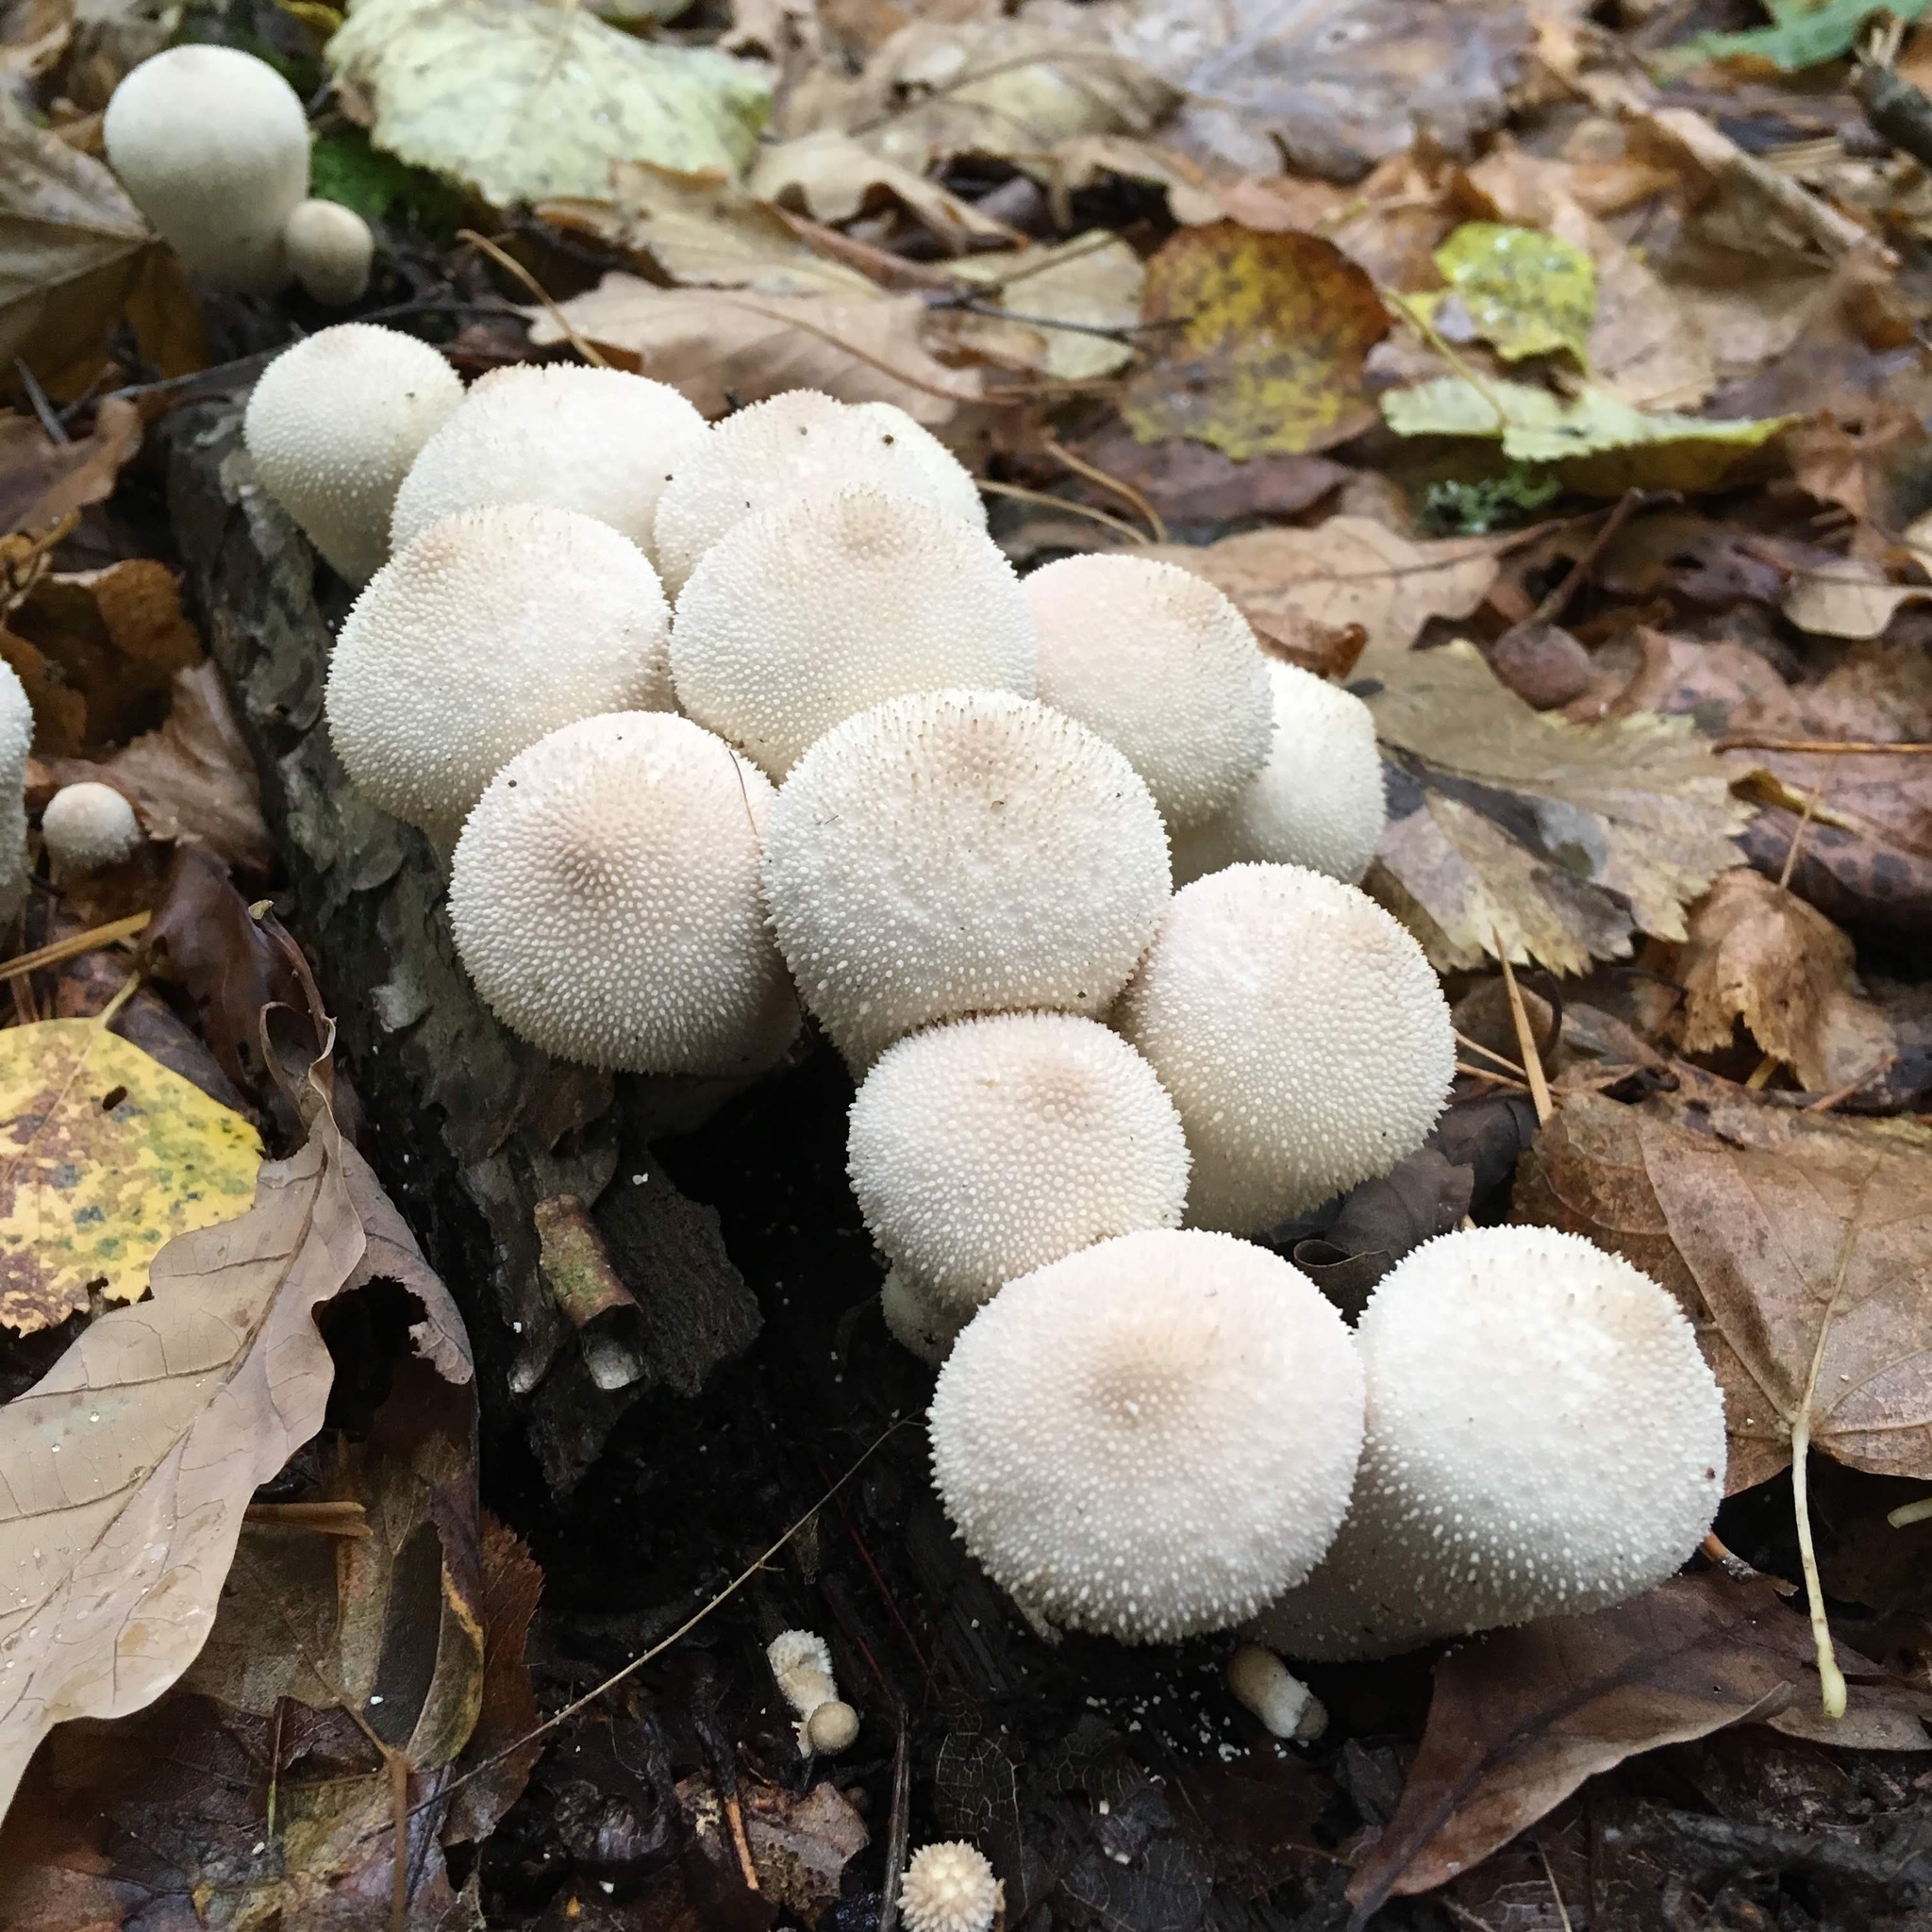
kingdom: Fungi
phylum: Basidiomycota
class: Agaricomycetes
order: Agaricales
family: Lycoperdaceae
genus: Lycoperdon
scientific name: Lycoperdon perlatum
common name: Common puffball
